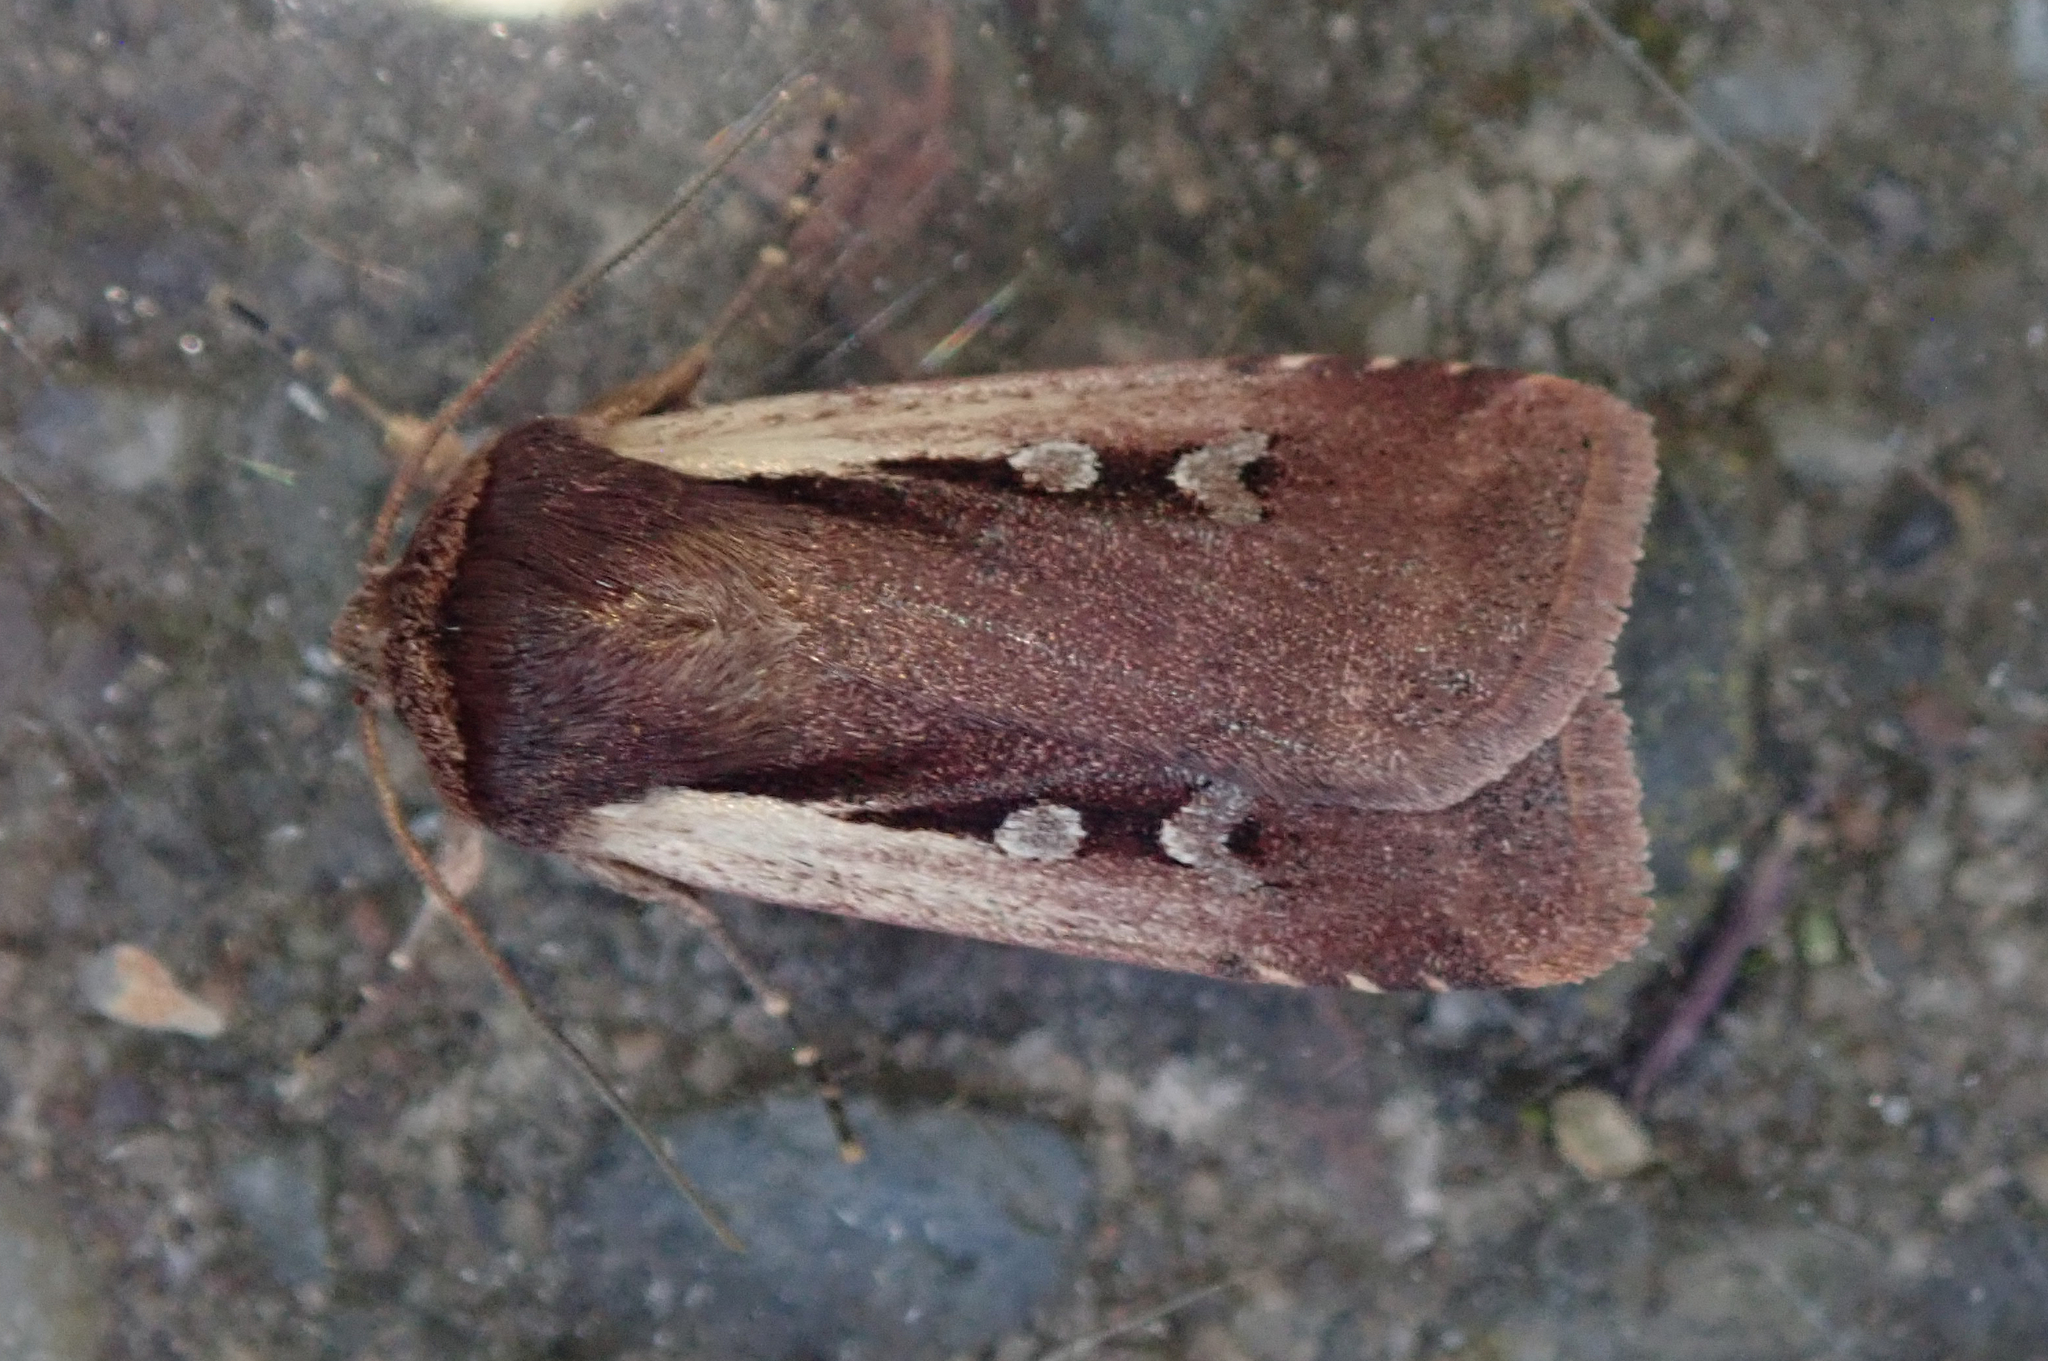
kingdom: Animalia
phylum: Arthropoda
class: Insecta
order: Lepidoptera
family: Noctuidae
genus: Ochropleura
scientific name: Ochropleura plecta
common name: Flame shoulder
